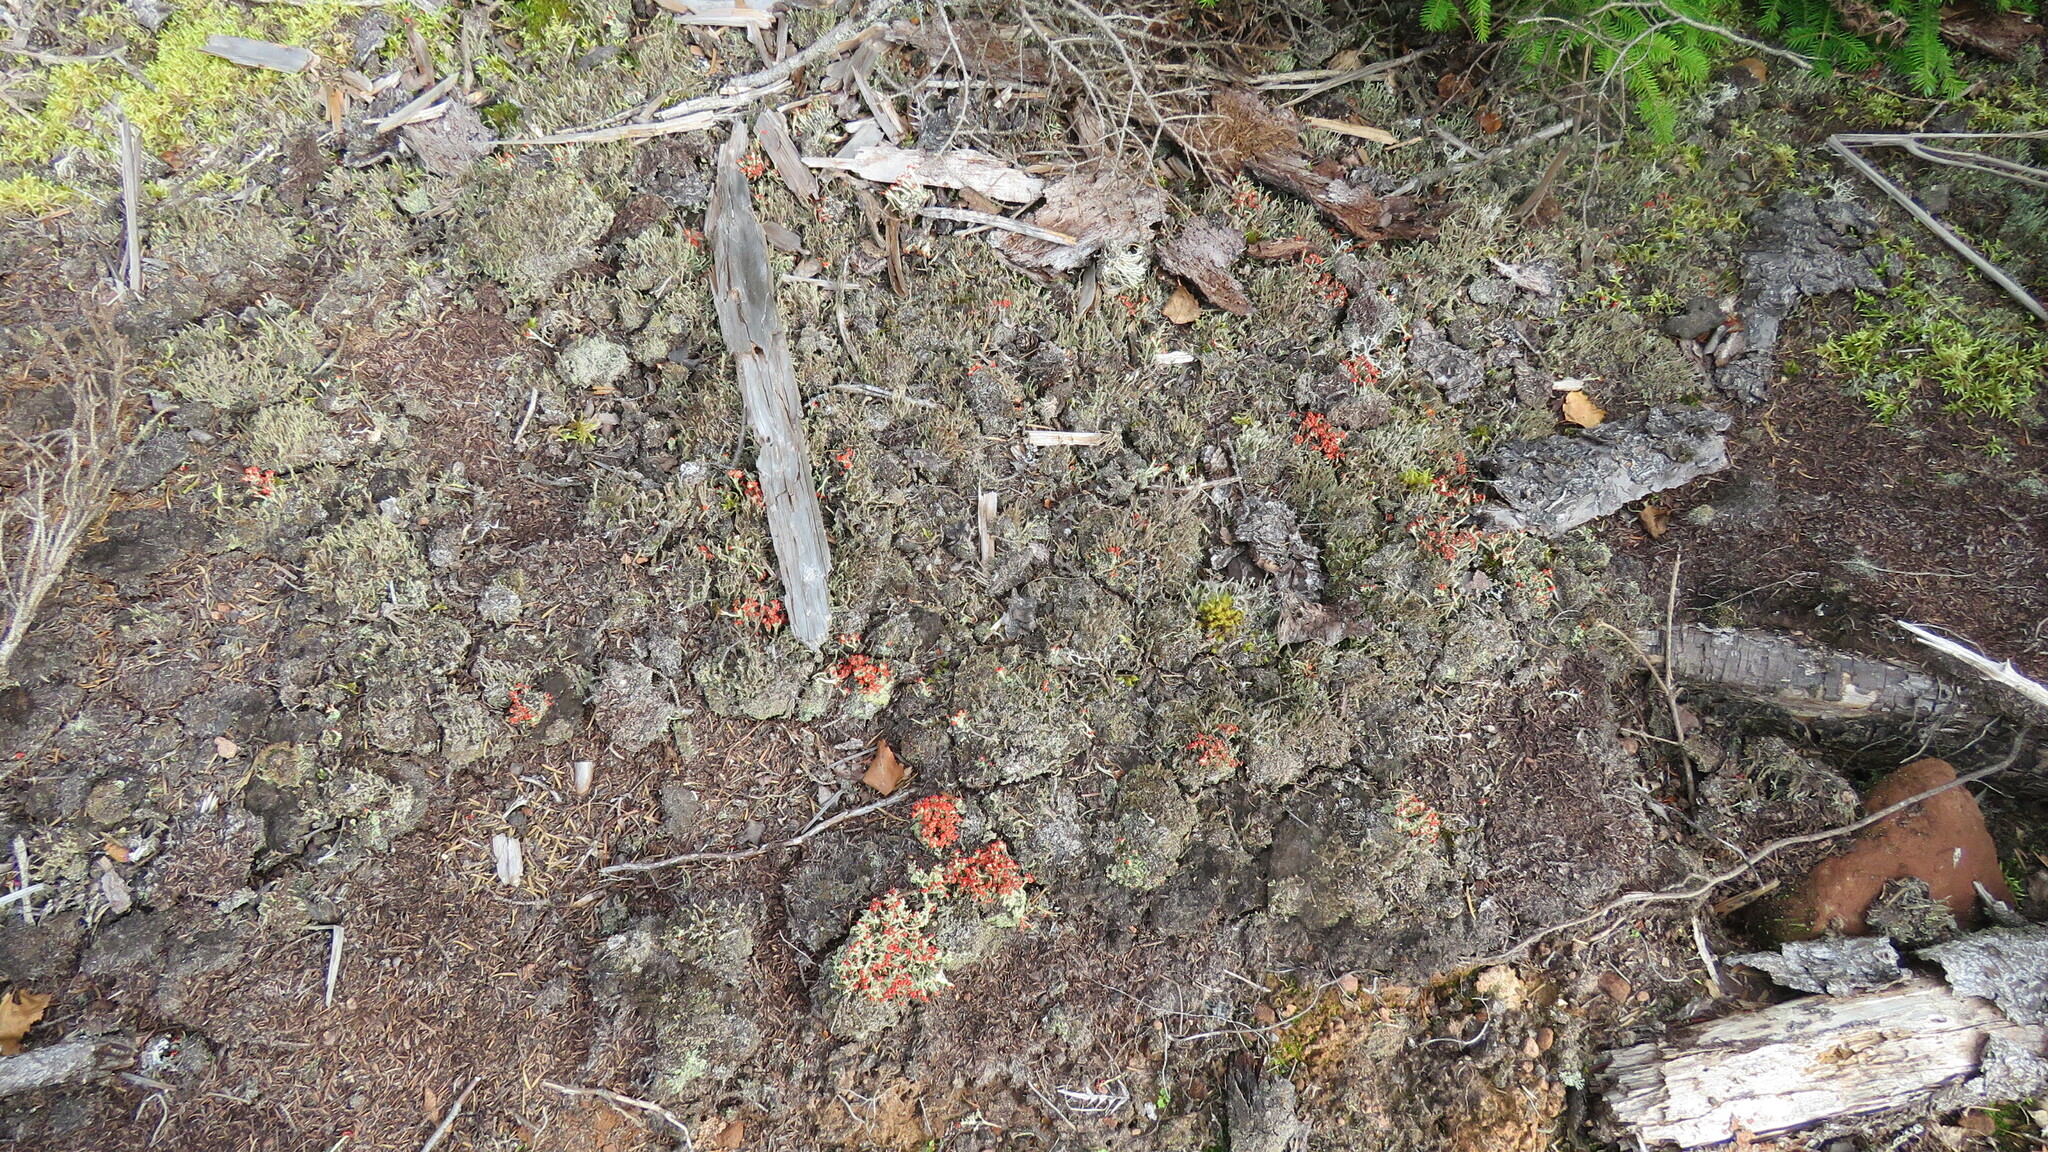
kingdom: Fungi
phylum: Ascomycota
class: Lecanoromycetes
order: Lecanorales
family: Cladoniaceae
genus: Cladonia
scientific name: Cladonia cristatella
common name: British soldier lichen
